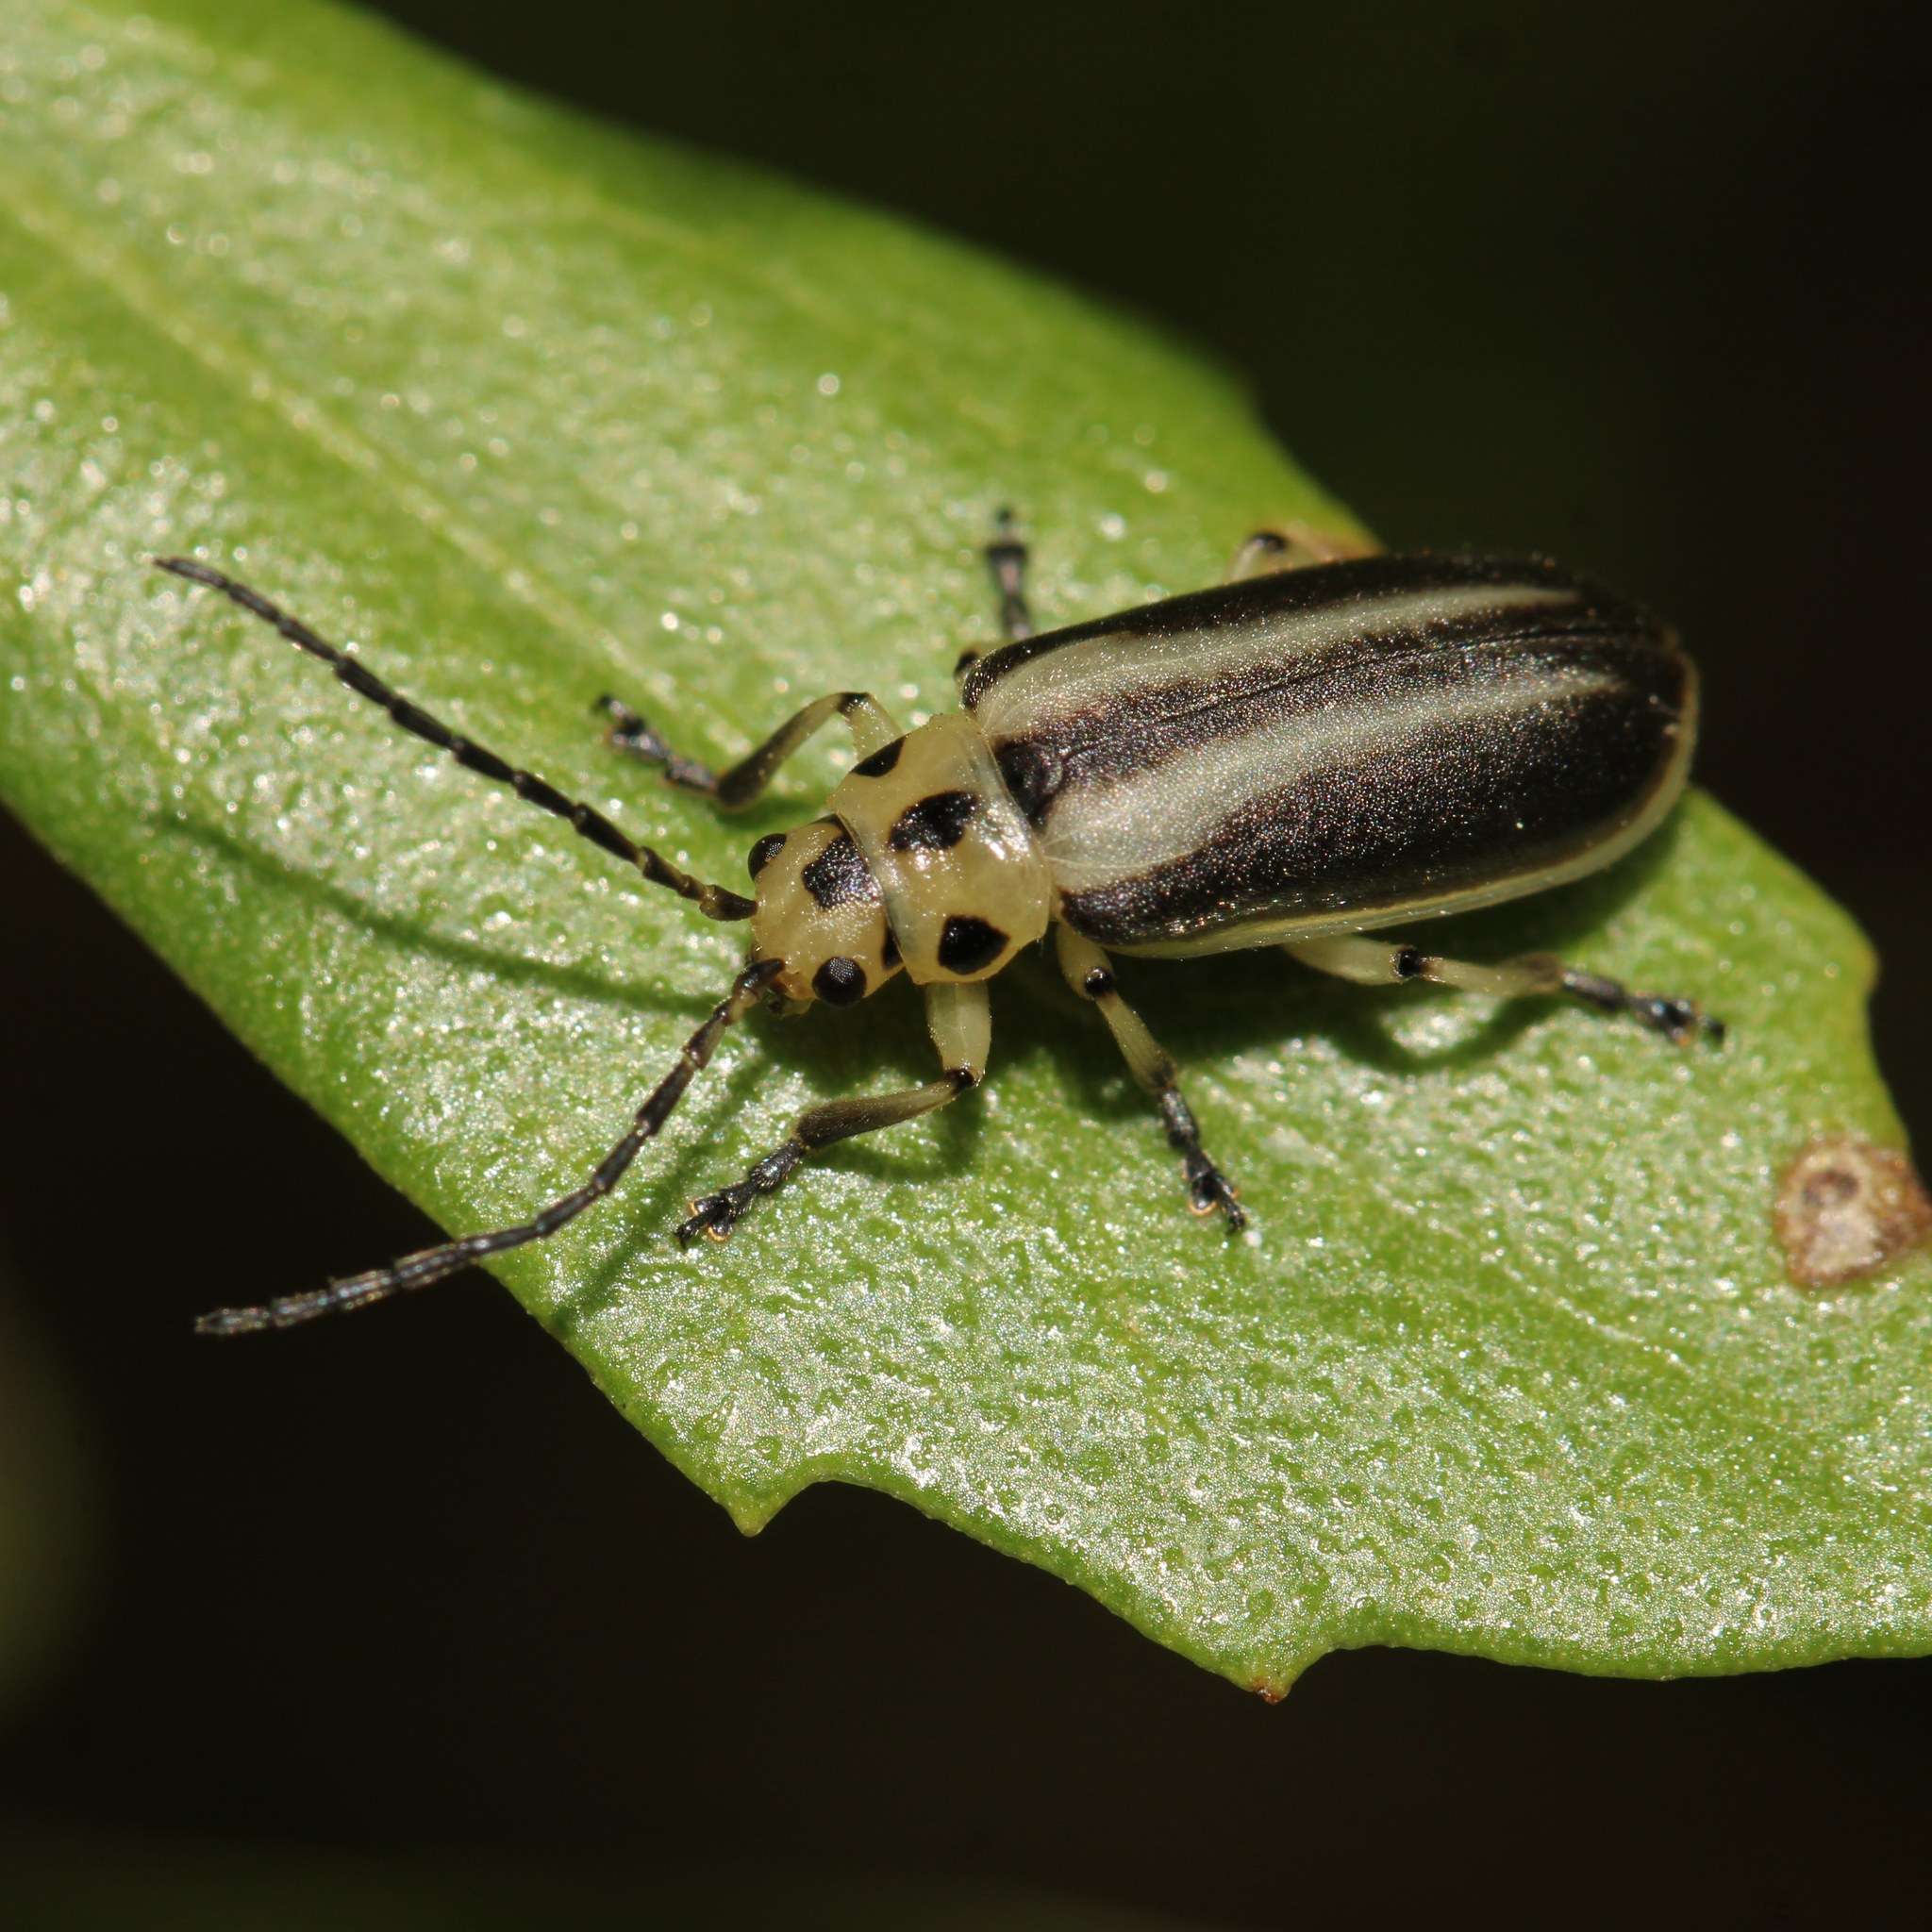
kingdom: Animalia
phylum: Arthropoda
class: Insecta
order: Coleoptera
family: Chrysomelidae
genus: Trirhabda
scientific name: Trirhabda bacharidis
